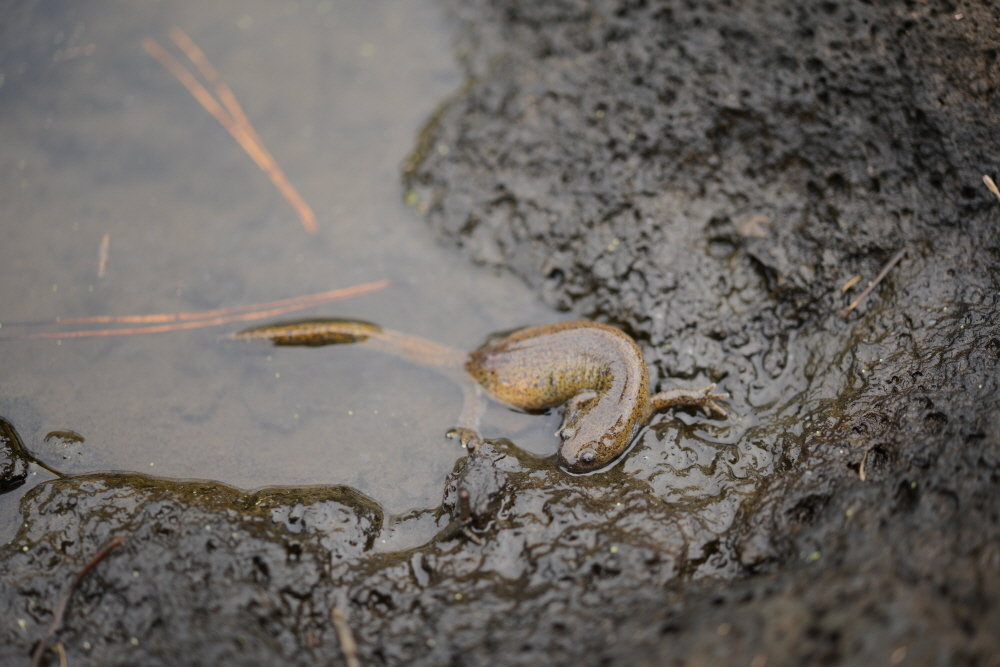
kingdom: Animalia
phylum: Chordata
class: Amphibia
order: Caudata
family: Hynobiidae
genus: Hynobius
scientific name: Hynobius quelpaertensis
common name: Cheju salamander
